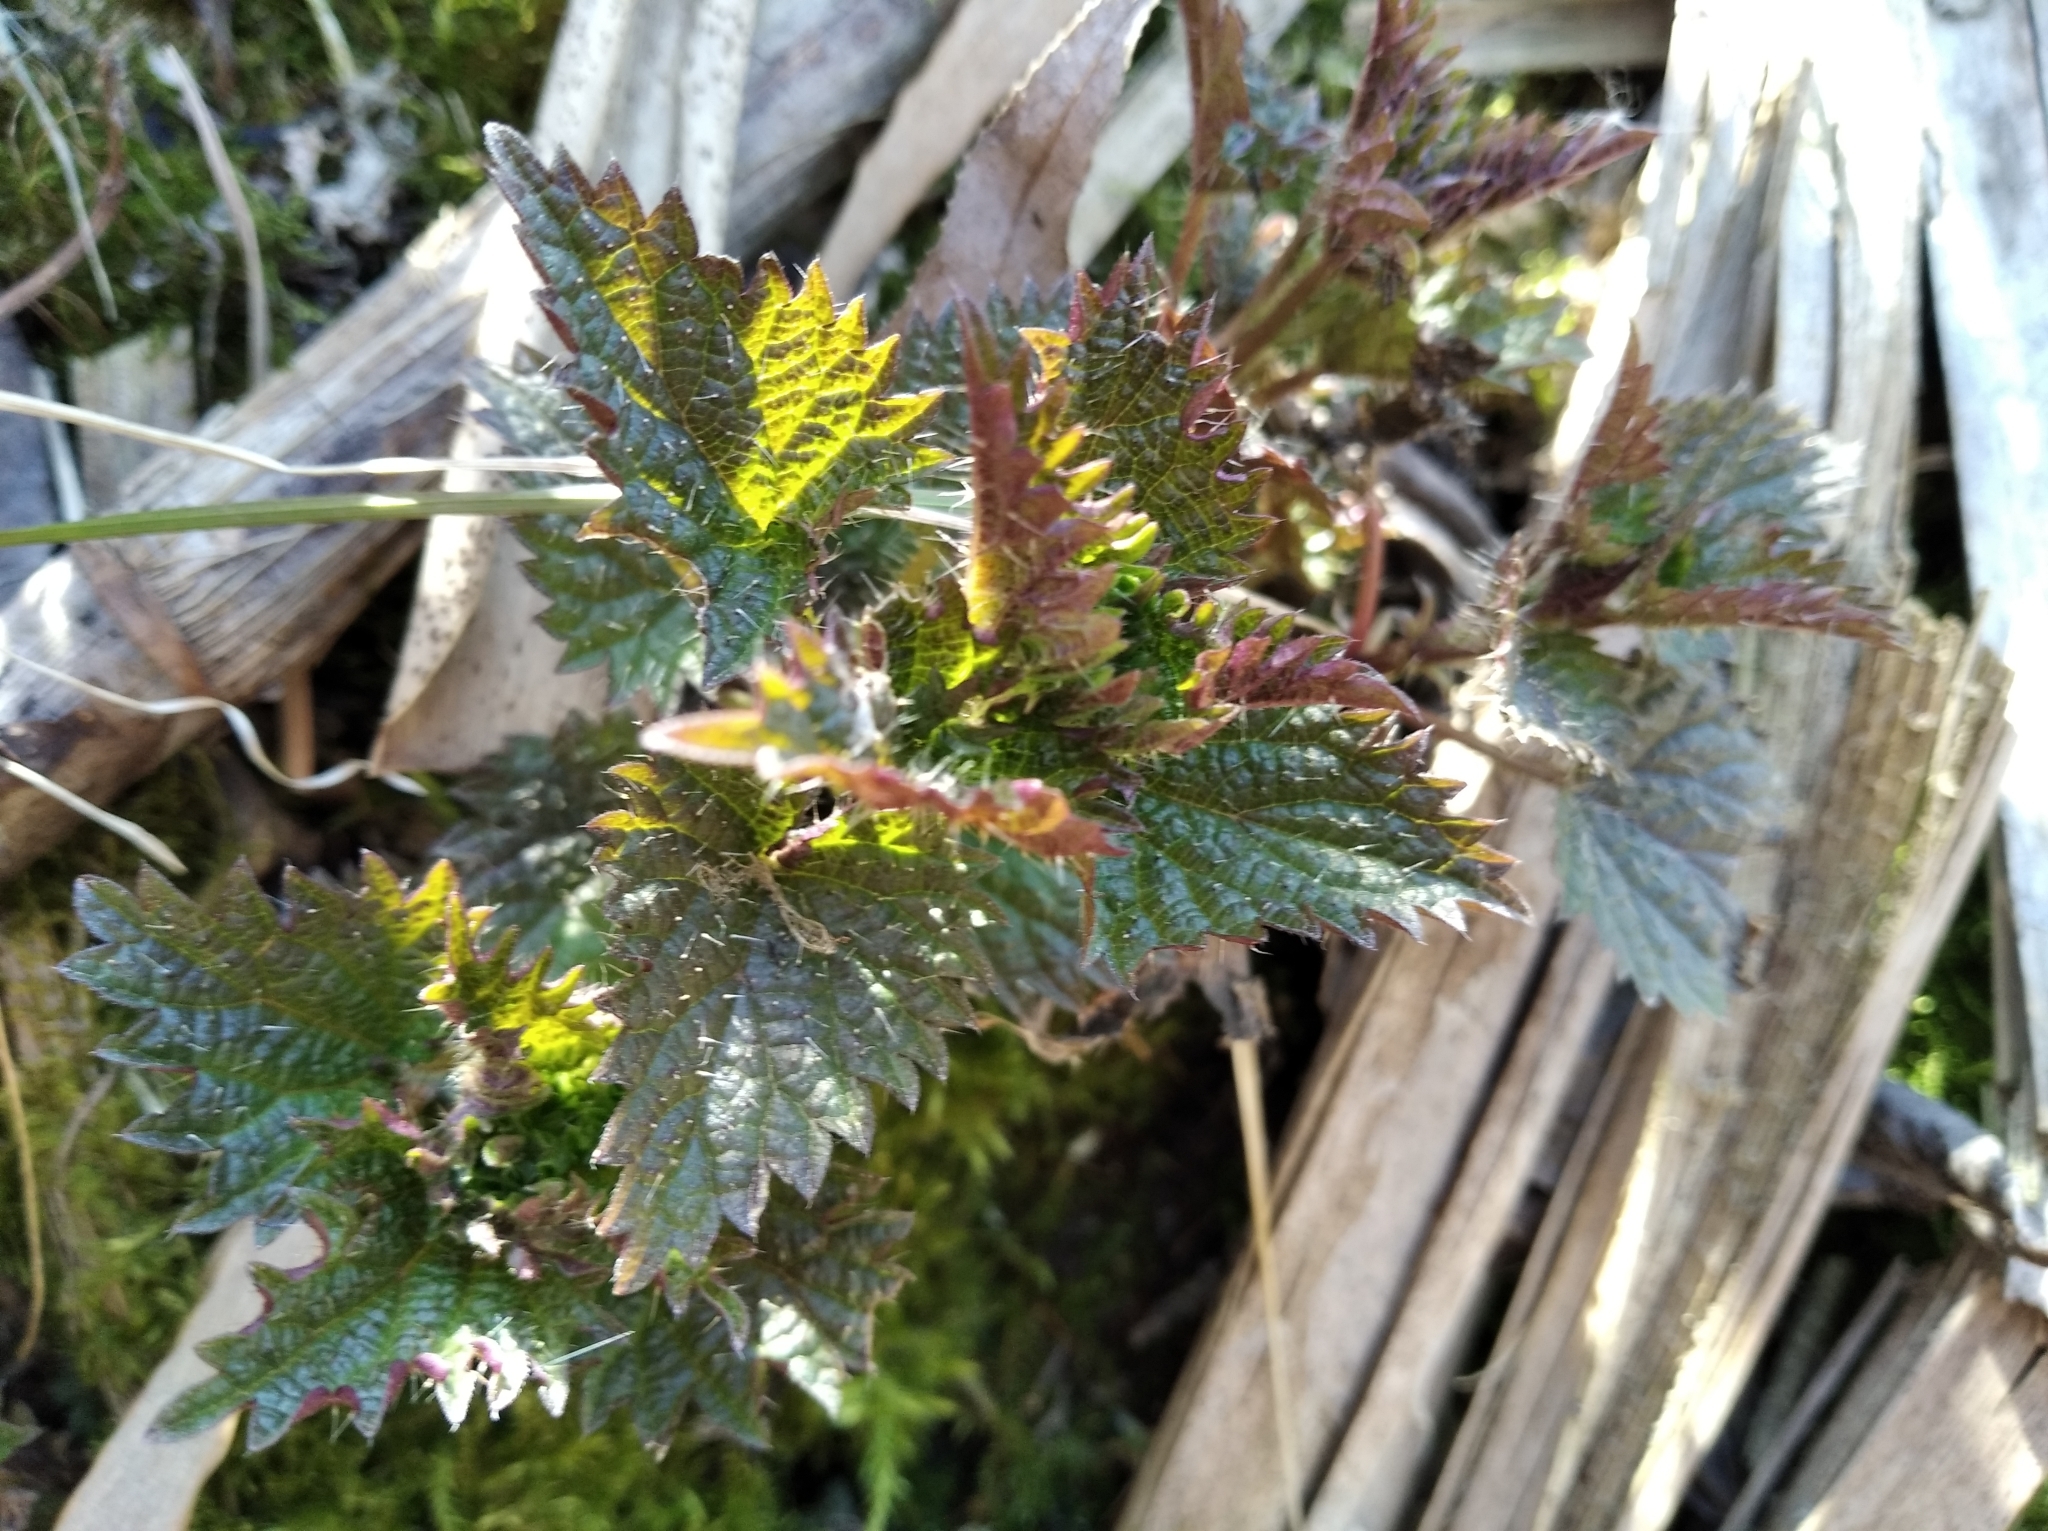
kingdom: Plantae
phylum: Tracheophyta
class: Magnoliopsida
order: Rosales
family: Urticaceae
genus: Urtica
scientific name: Urtica dioica
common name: Common nettle
